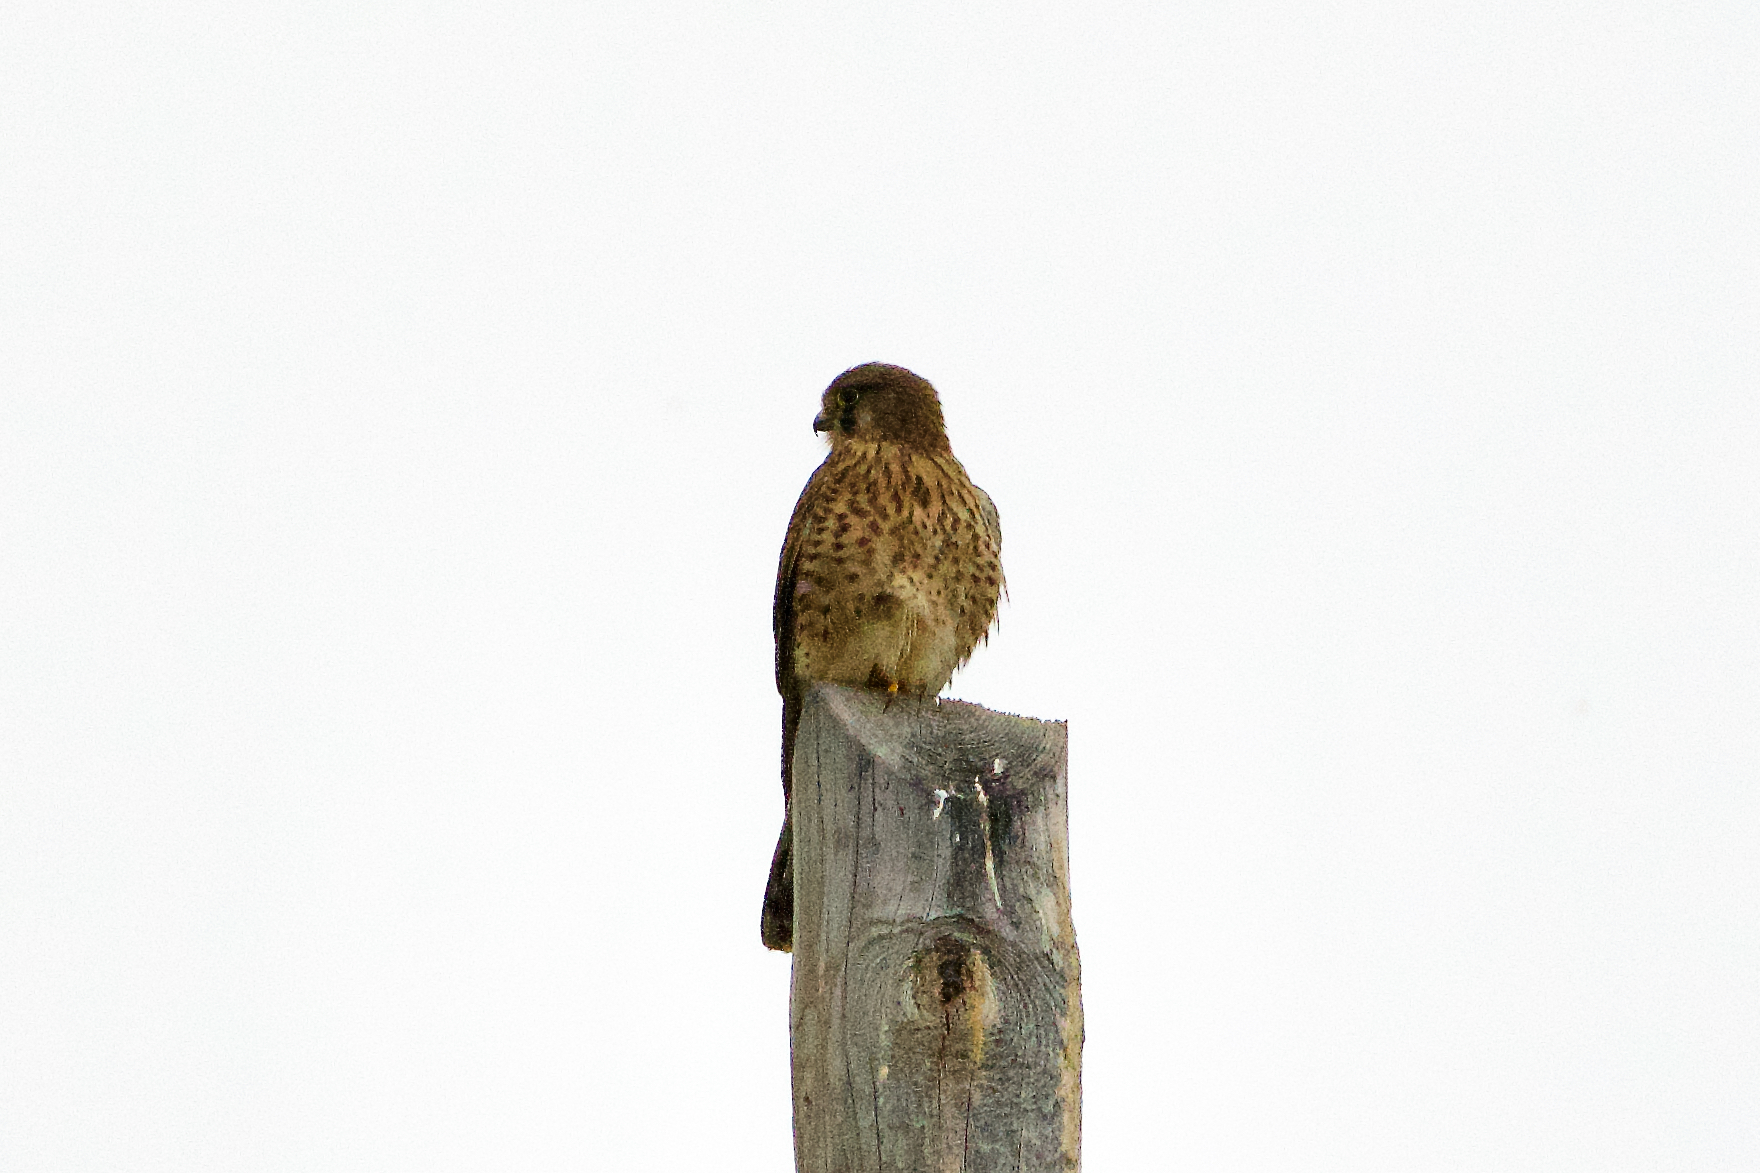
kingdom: Animalia
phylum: Chordata
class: Aves
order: Falconiformes
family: Falconidae
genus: Falco
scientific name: Falco tinnunculus
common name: Common kestrel
